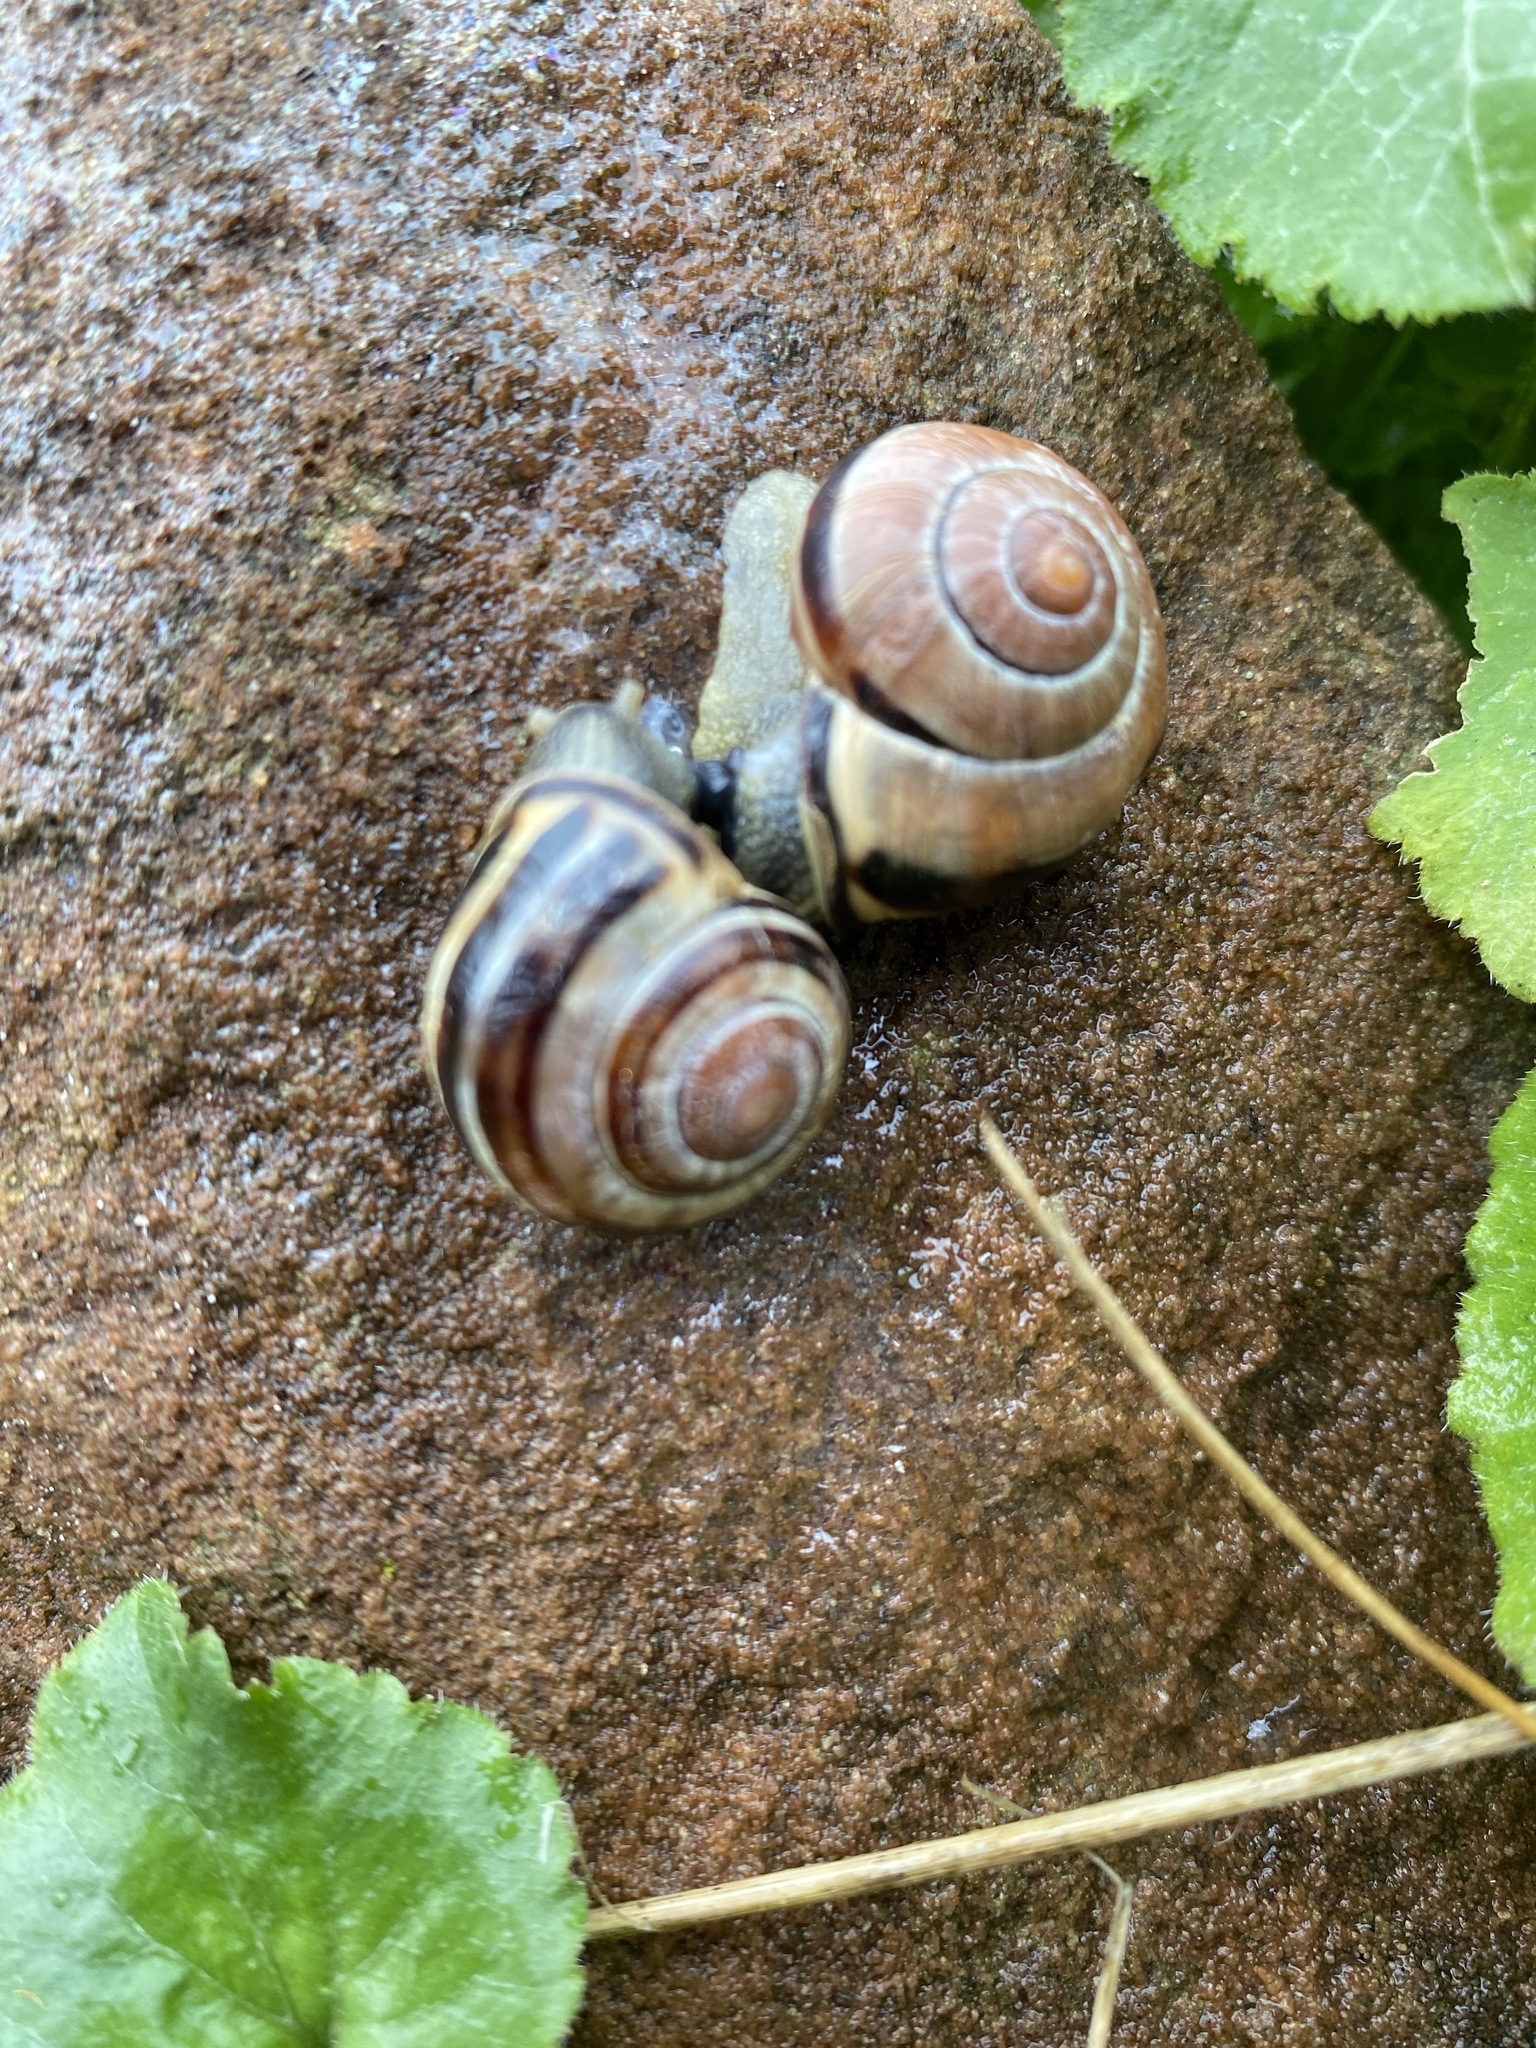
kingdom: Animalia
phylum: Mollusca
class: Gastropoda
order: Stylommatophora
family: Helicidae
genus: Cepaea
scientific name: Cepaea nemoralis
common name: Grovesnail
